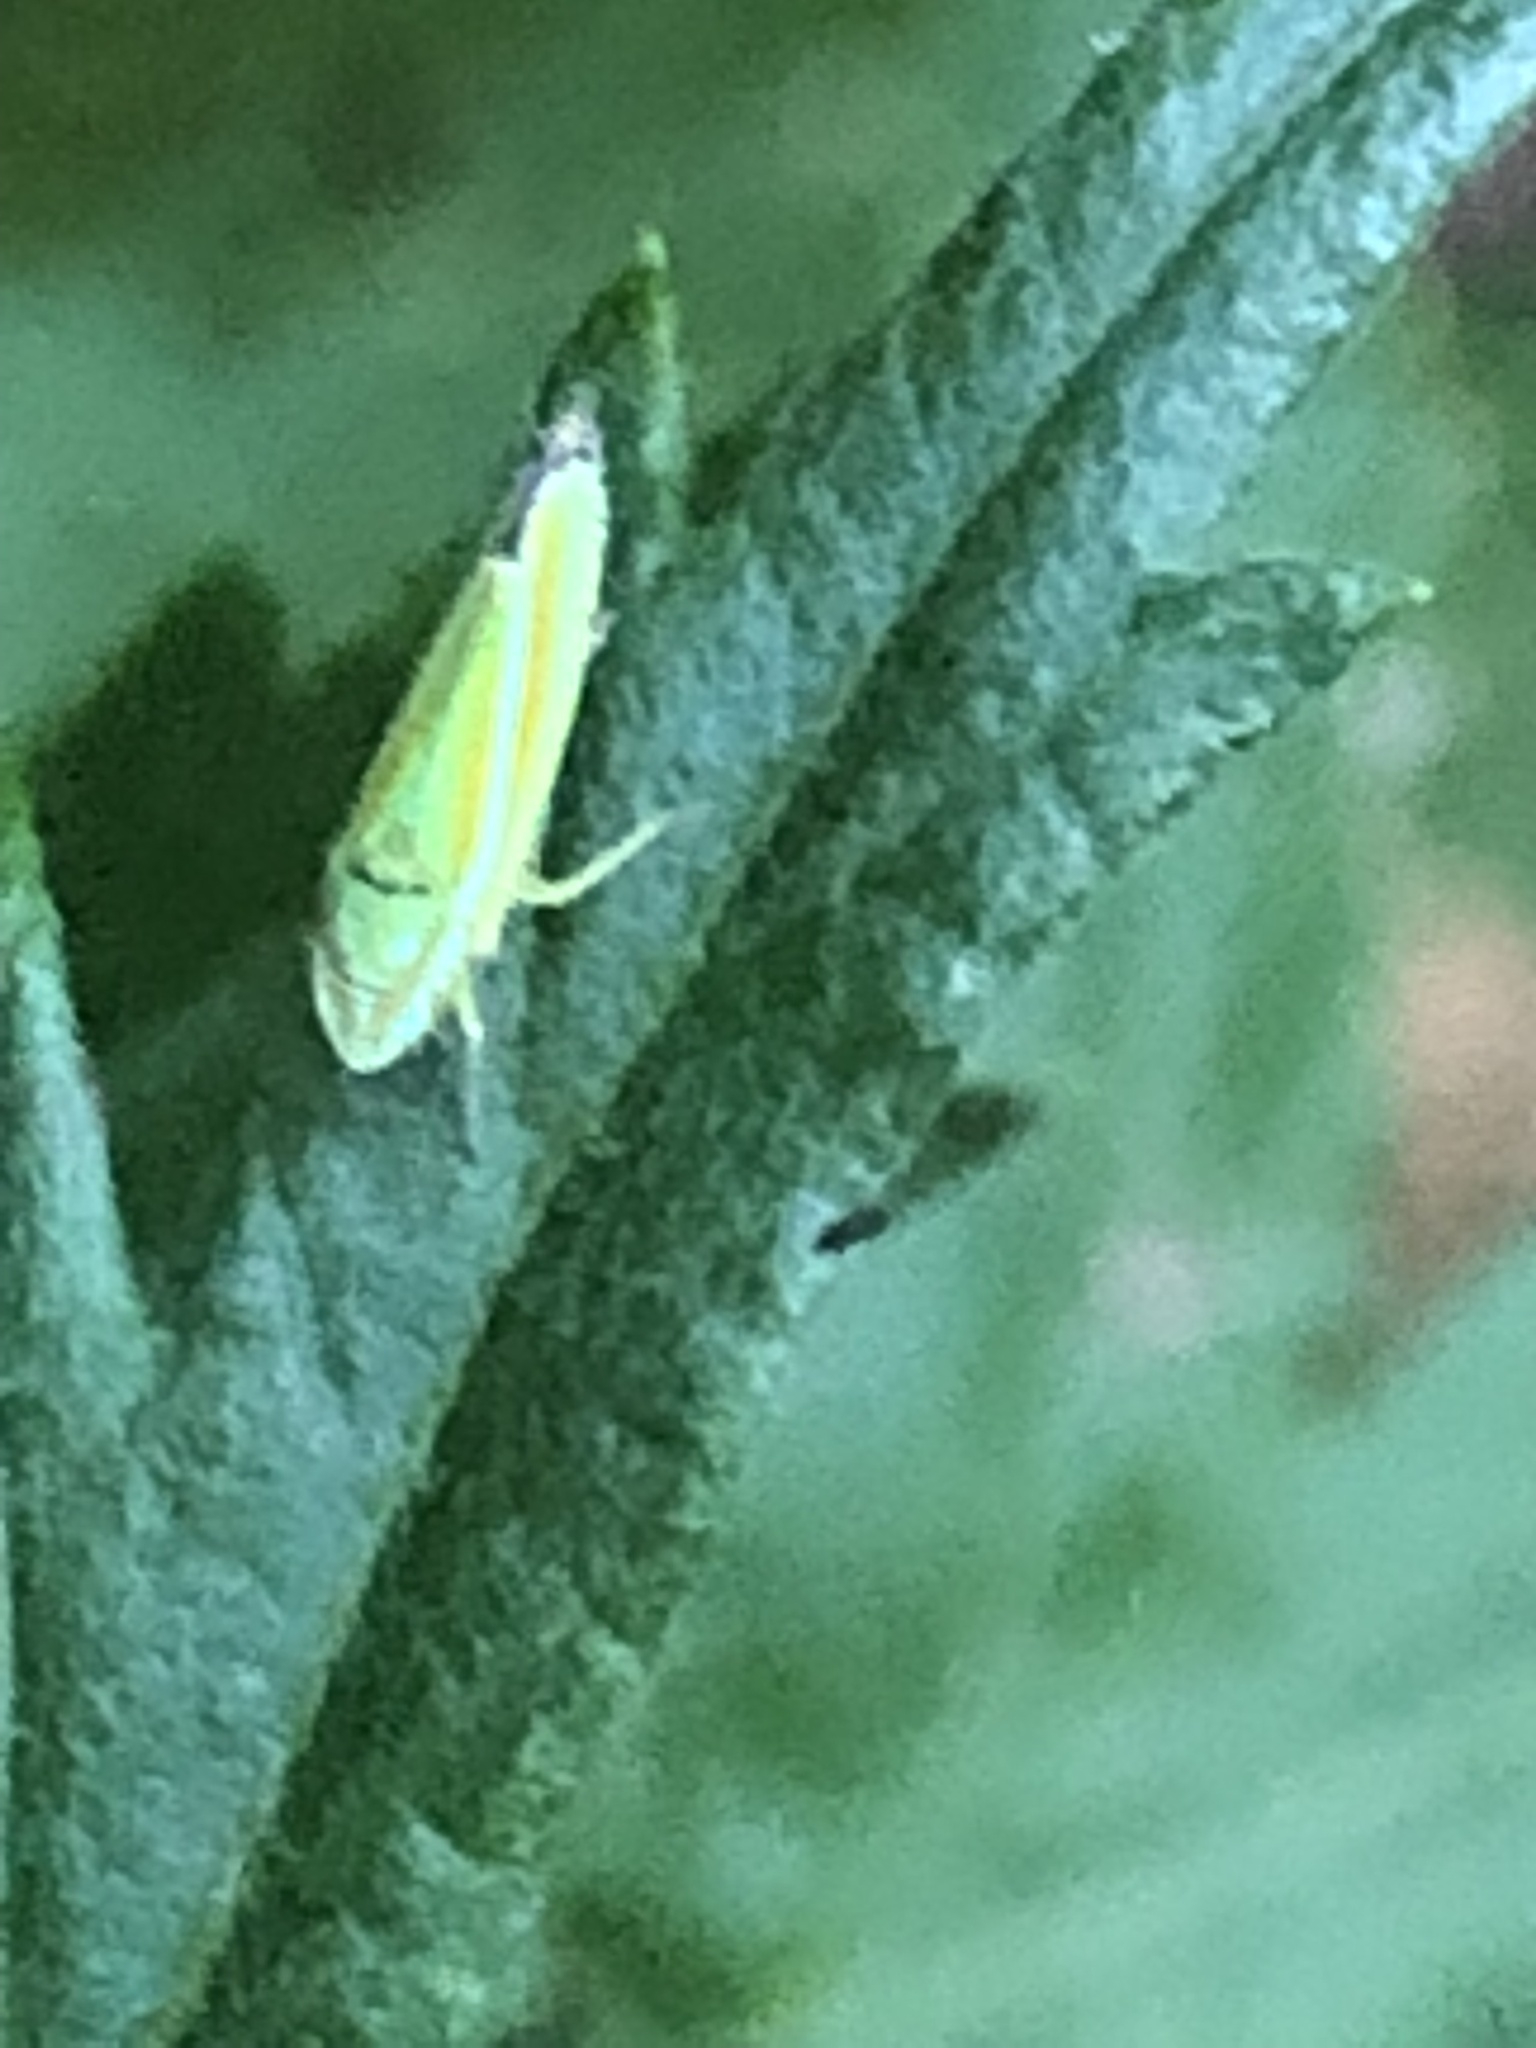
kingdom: Animalia
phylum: Arthropoda
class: Insecta
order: Hemiptera
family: Cicadellidae
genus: Graphocephala
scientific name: Graphocephala versuta
